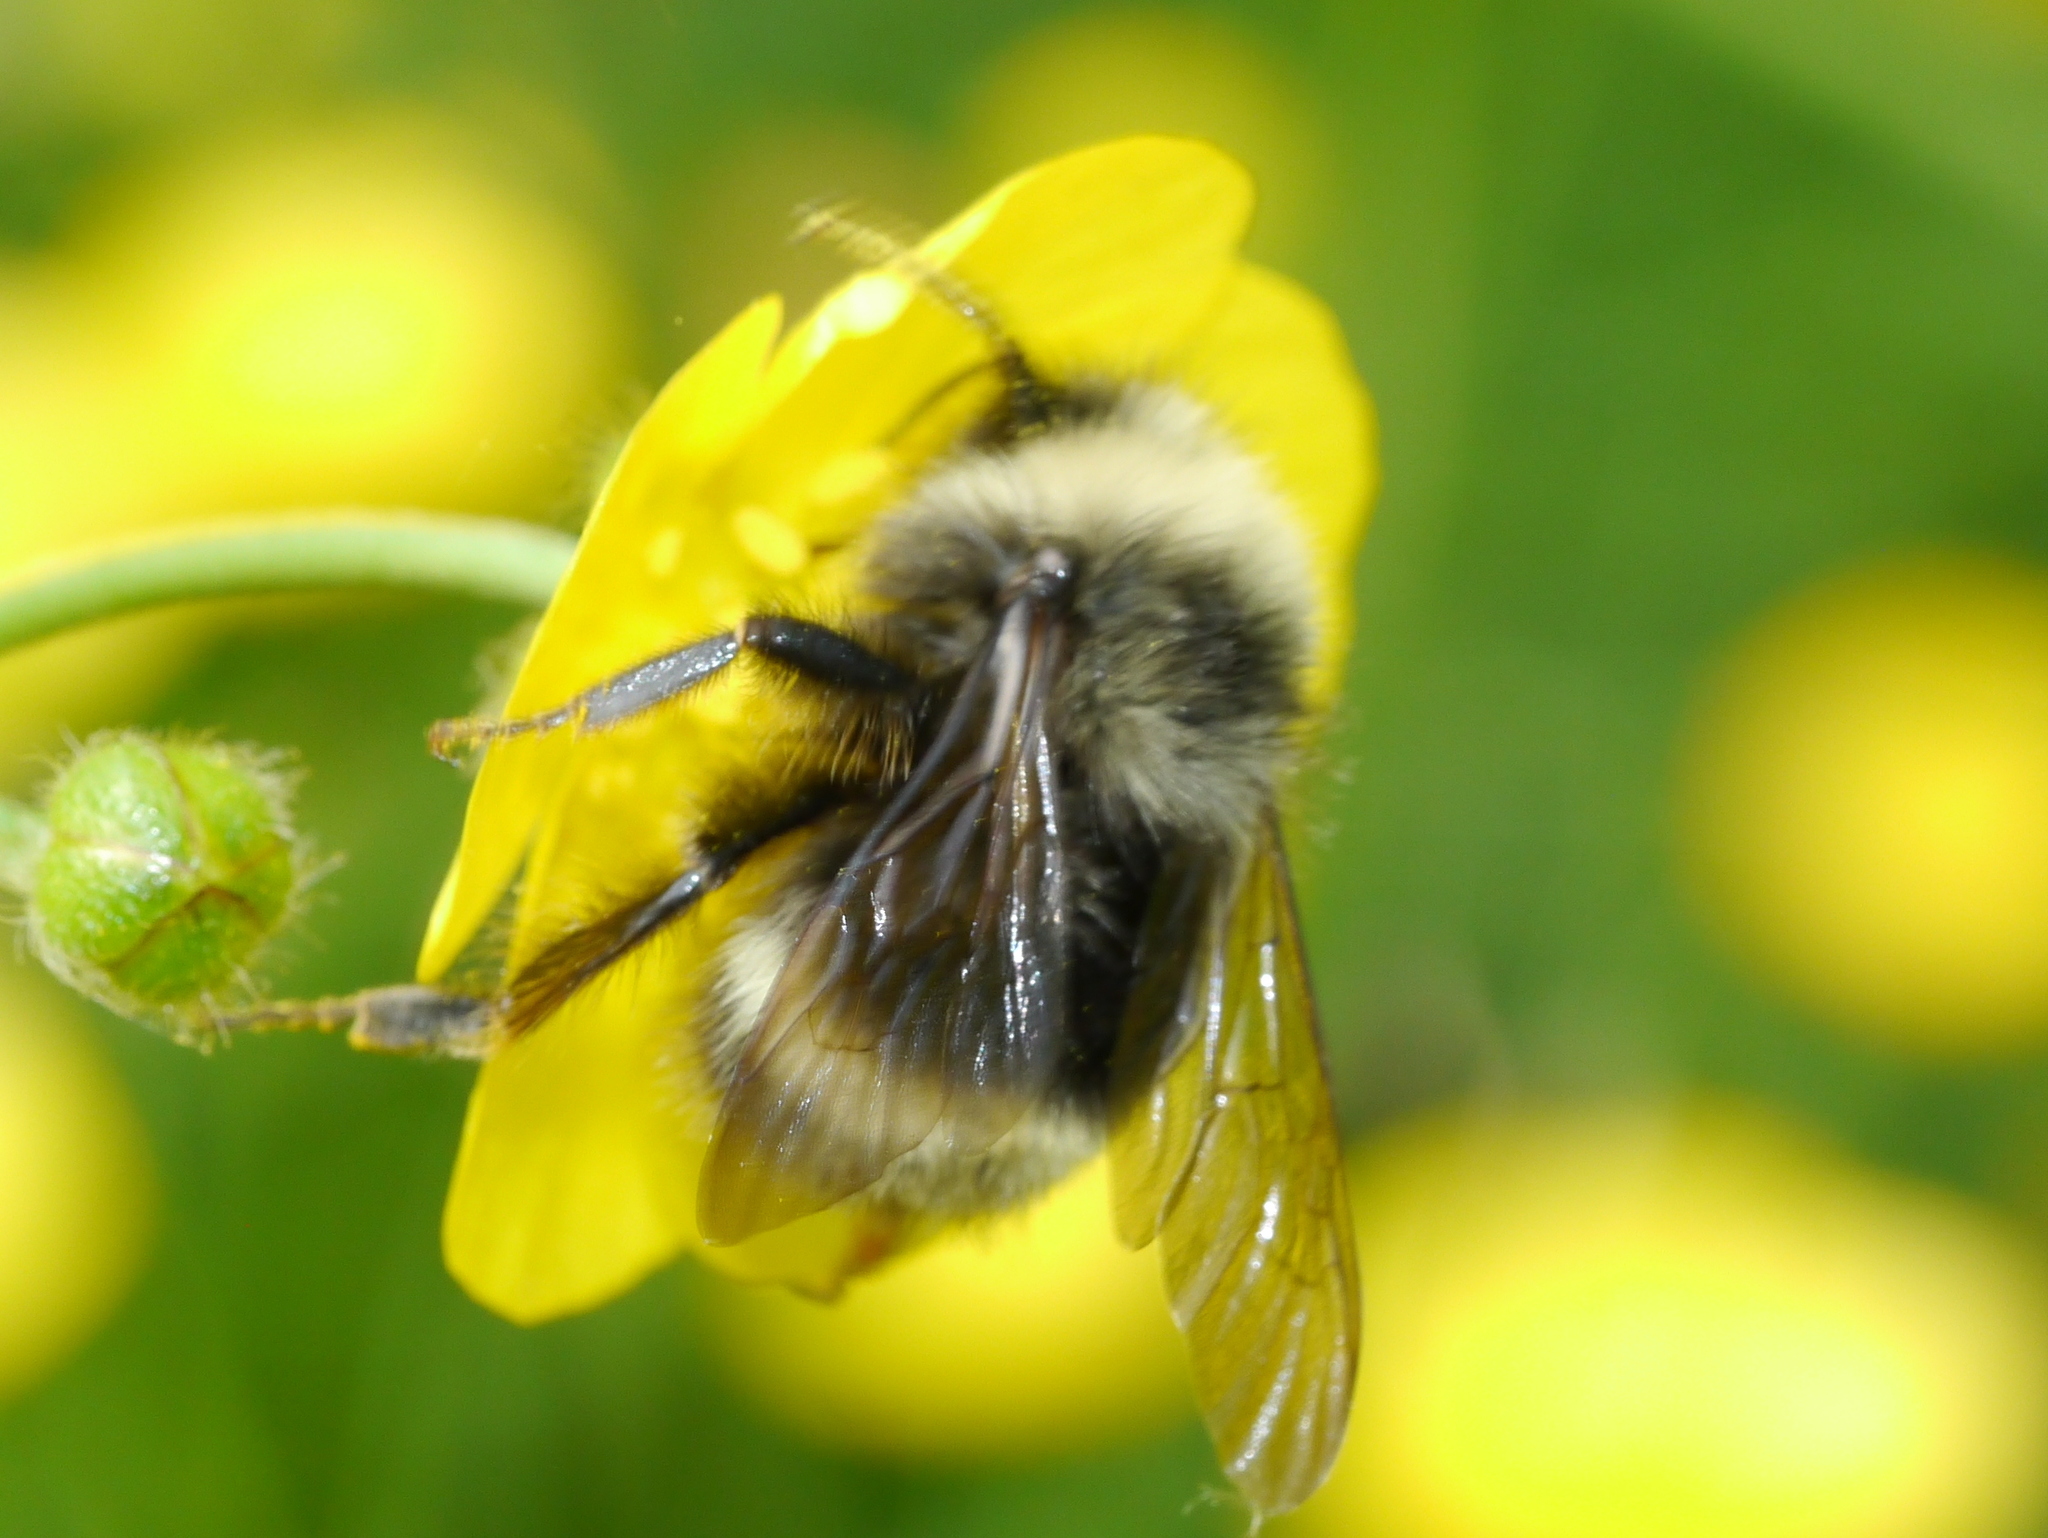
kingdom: Animalia
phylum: Arthropoda
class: Insecta
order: Hymenoptera
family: Apidae
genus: Bombus
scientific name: Bombus mckayi
